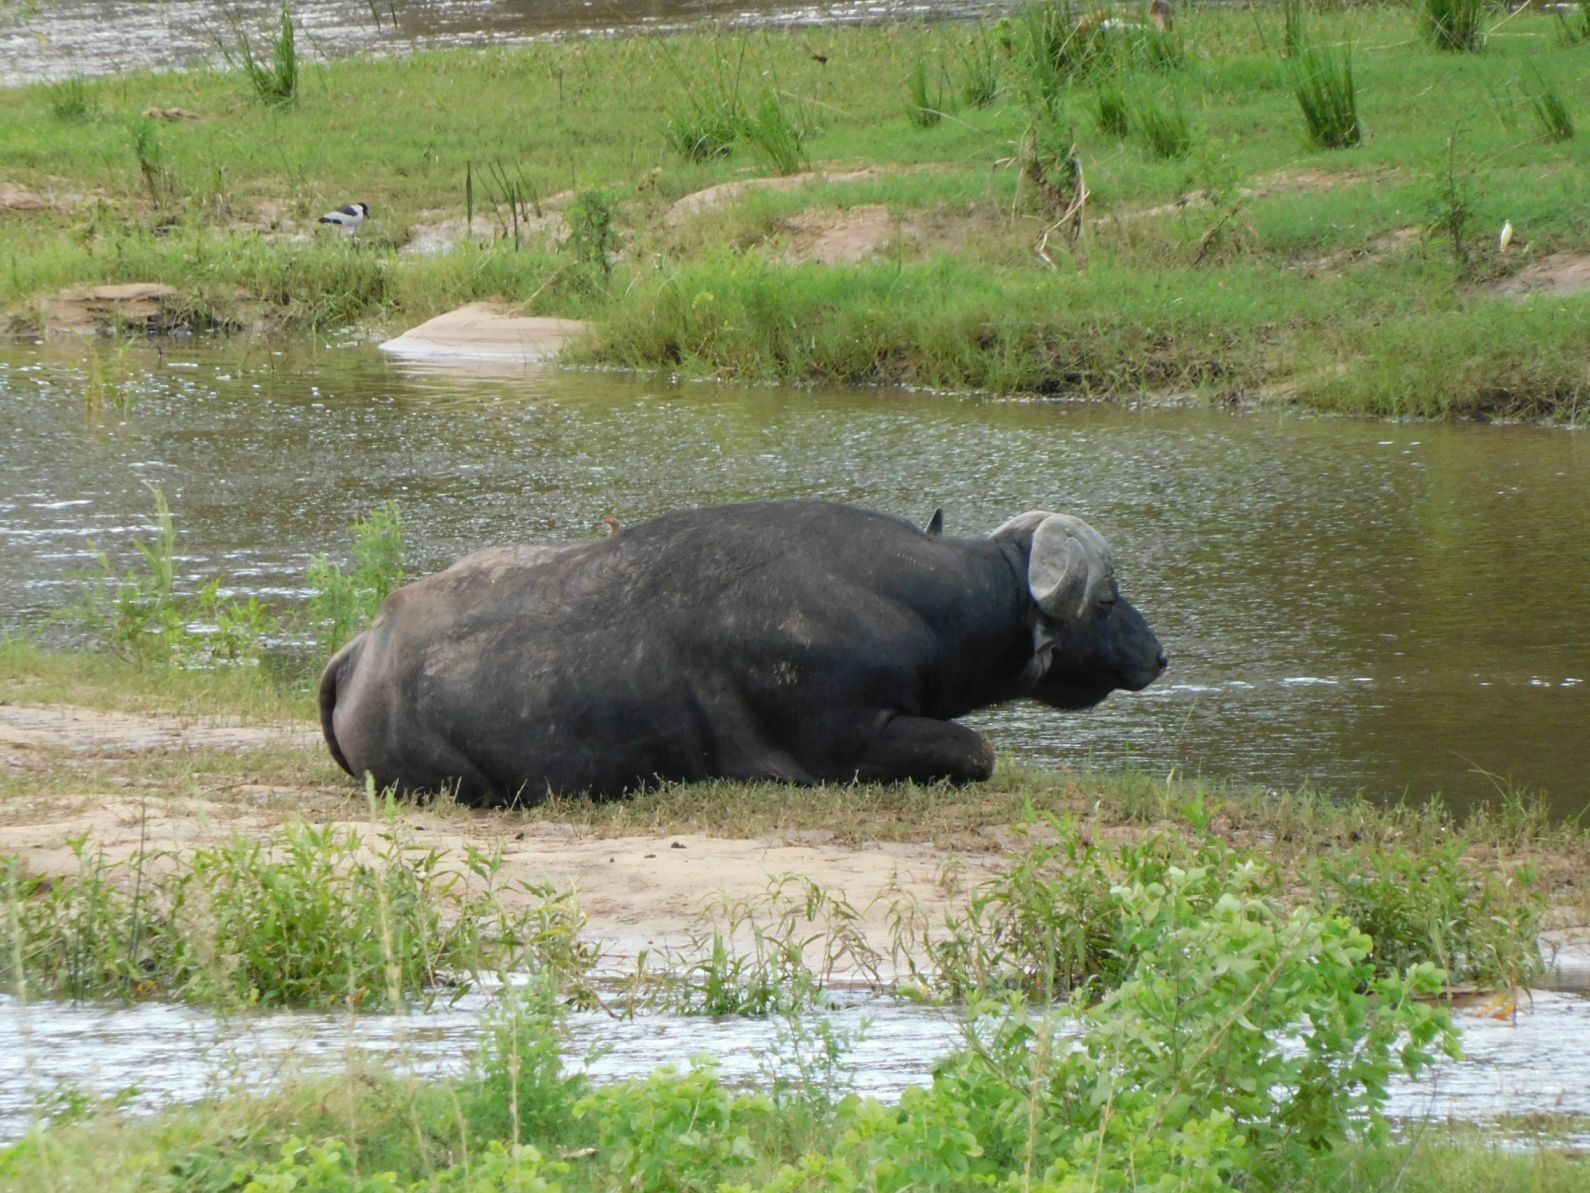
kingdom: Animalia
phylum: Chordata
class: Mammalia
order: Artiodactyla
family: Bovidae
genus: Syncerus
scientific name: Syncerus caffer
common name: African buffalo
